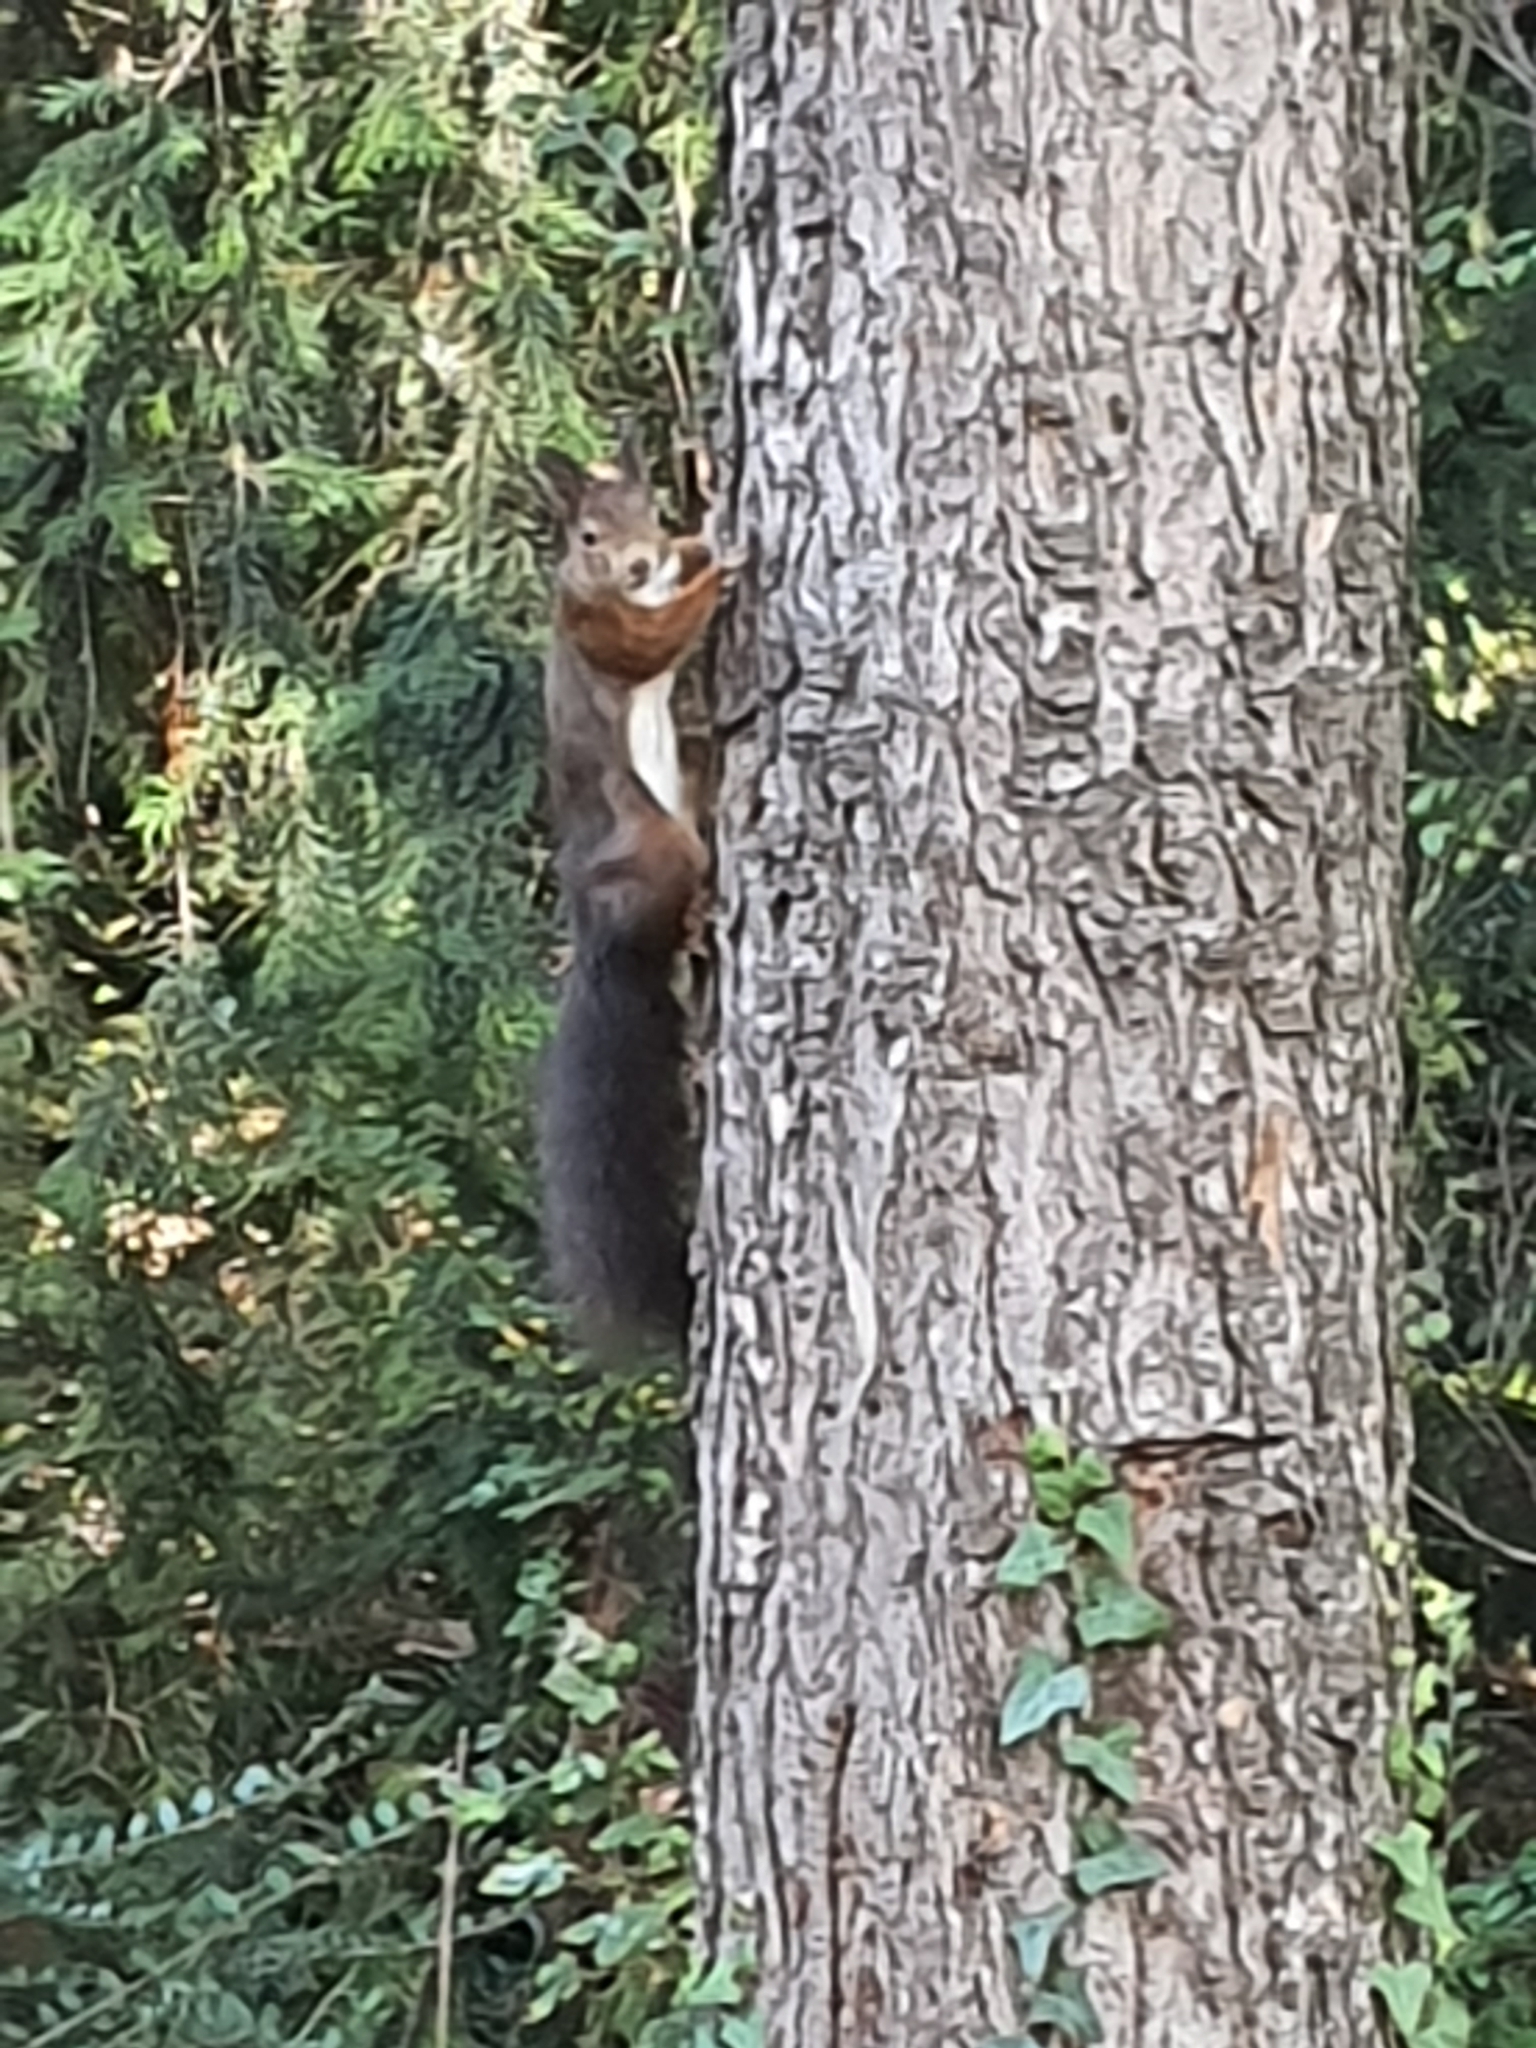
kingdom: Animalia
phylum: Chordata
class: Mammalia
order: Rodentia
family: Sciuridae
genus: Sciurus
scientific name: Sciurus vulgaris
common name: Eurasian red squirrel
